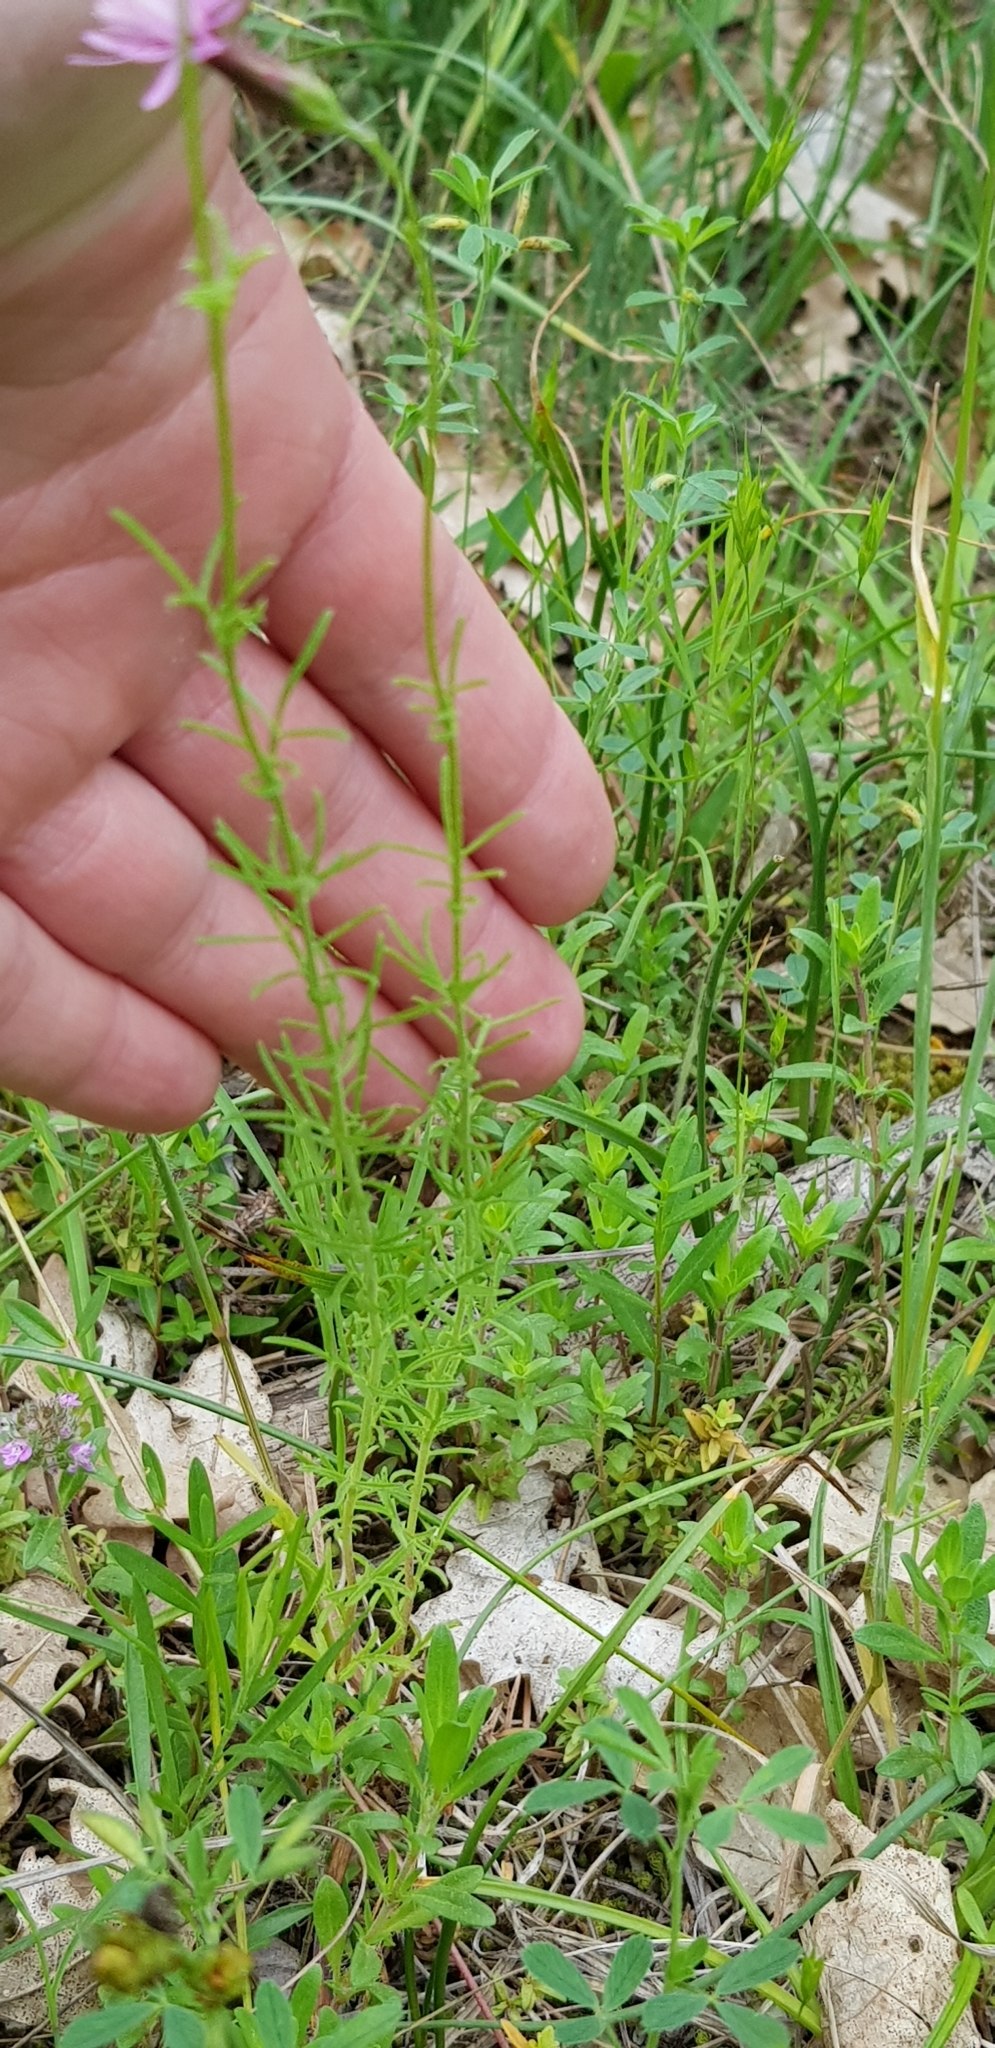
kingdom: Plantae
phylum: Tracheophyta
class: Magnoliopsida
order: Asterales
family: Asteraceae
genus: Crupina
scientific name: Crupina vulgaris
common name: Common crupina
